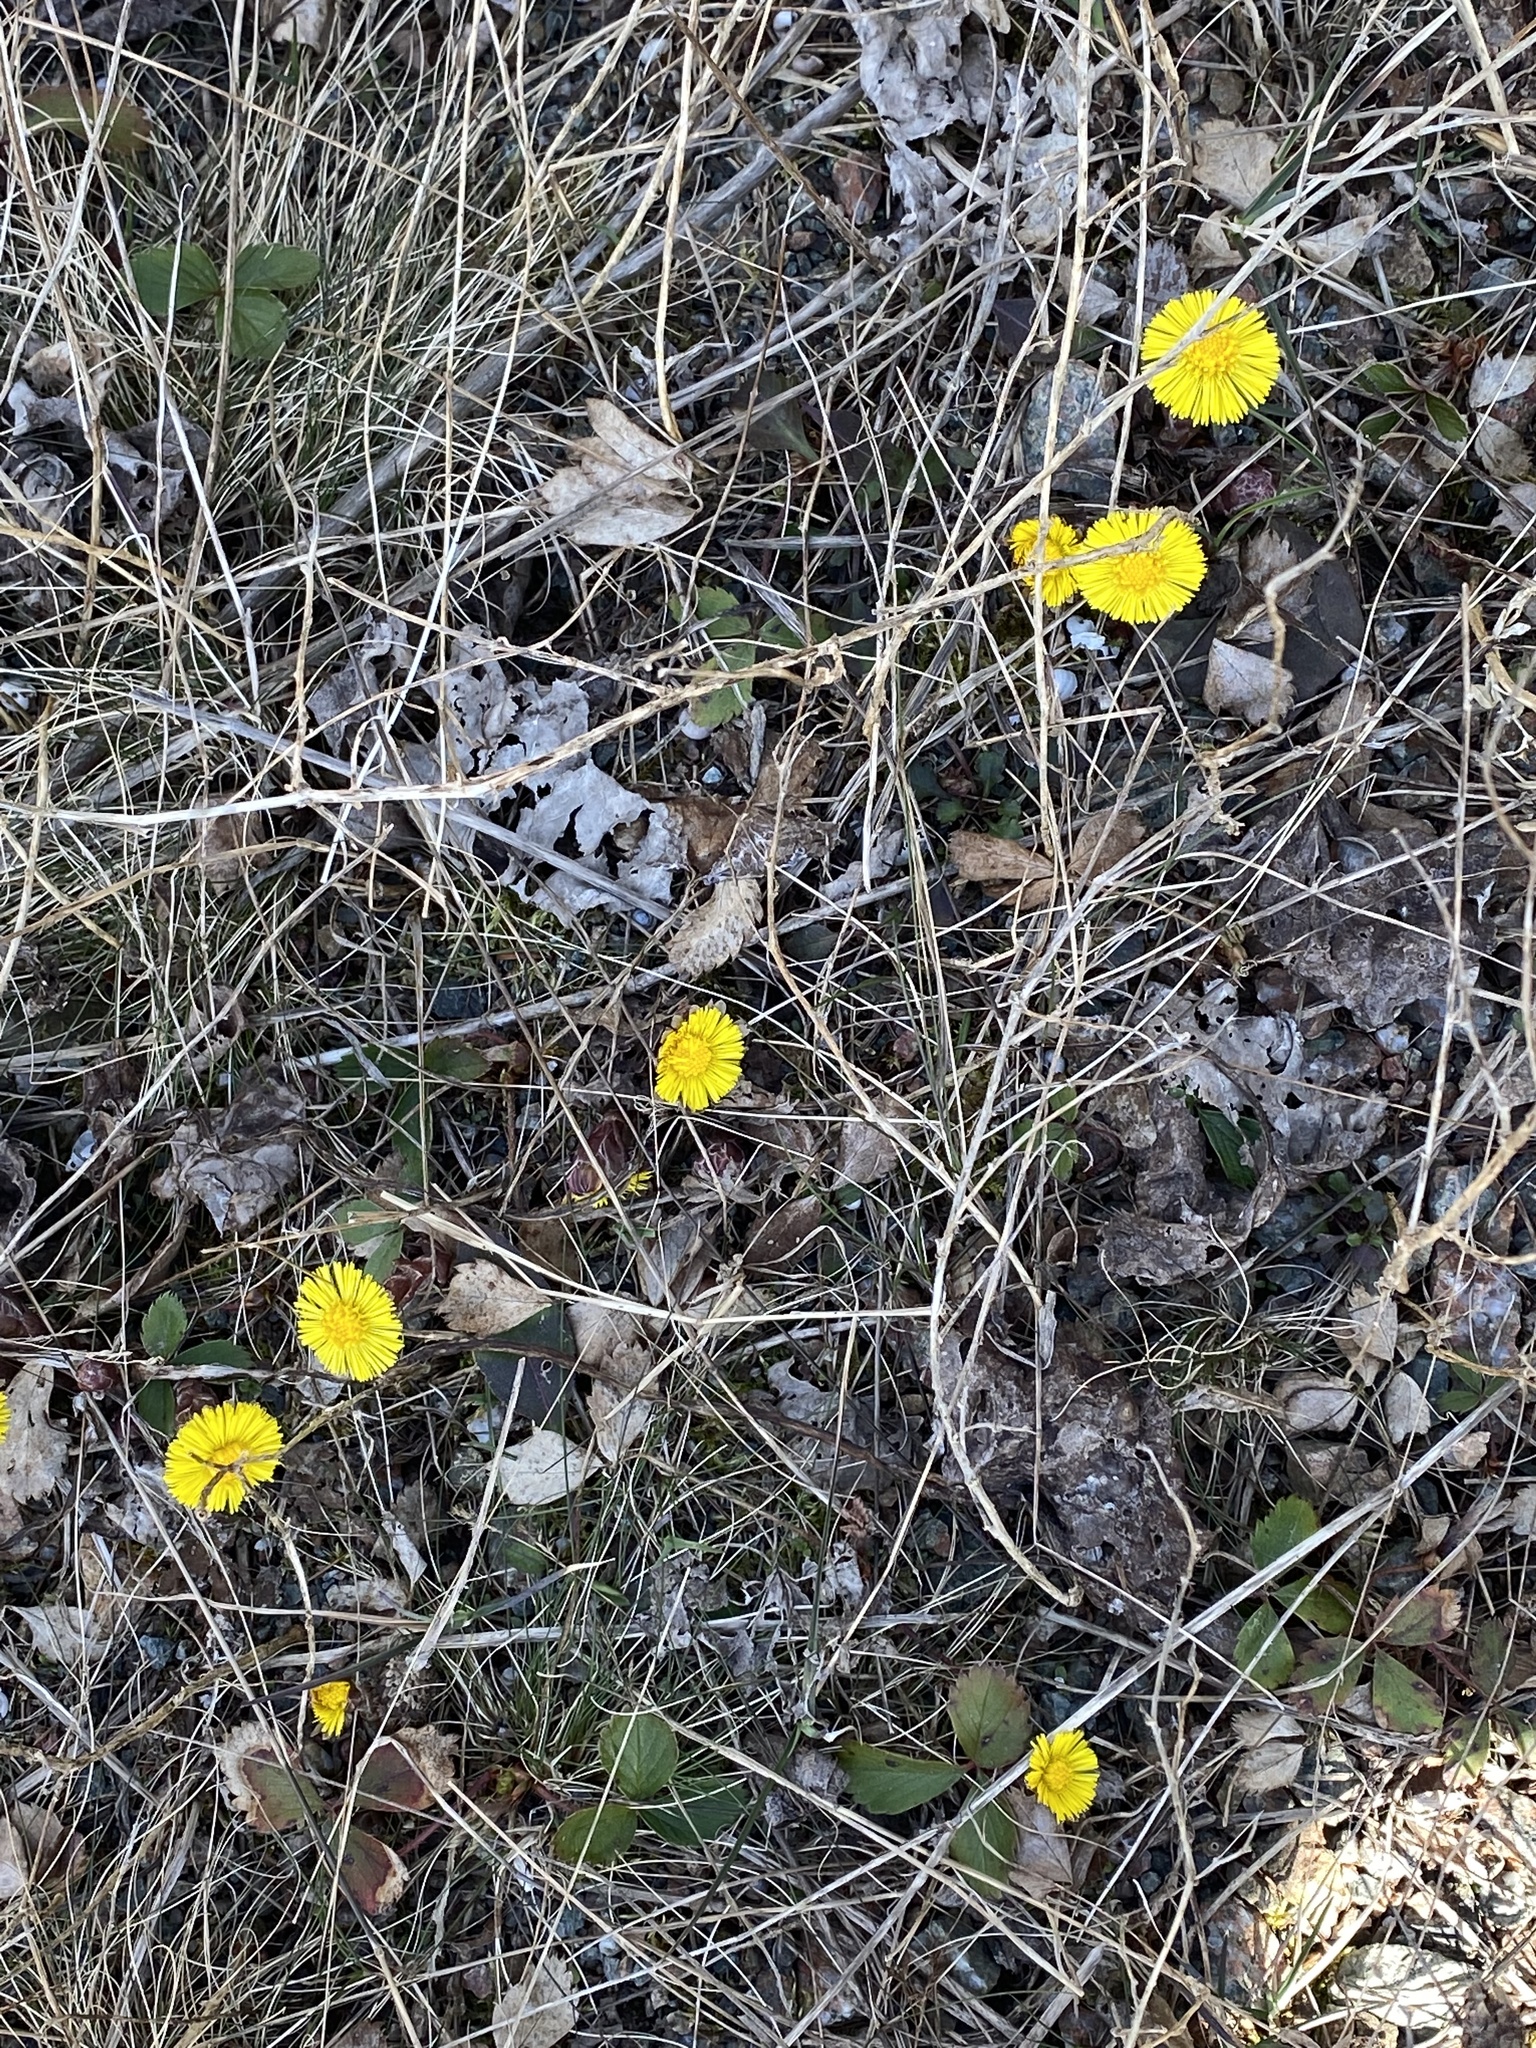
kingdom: Plantae
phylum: Tracheophyta
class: Magnoliopsida
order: Asterales
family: Asteraceae
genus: Tussilago
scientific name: Tussilago farfara
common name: Coltsfoot
